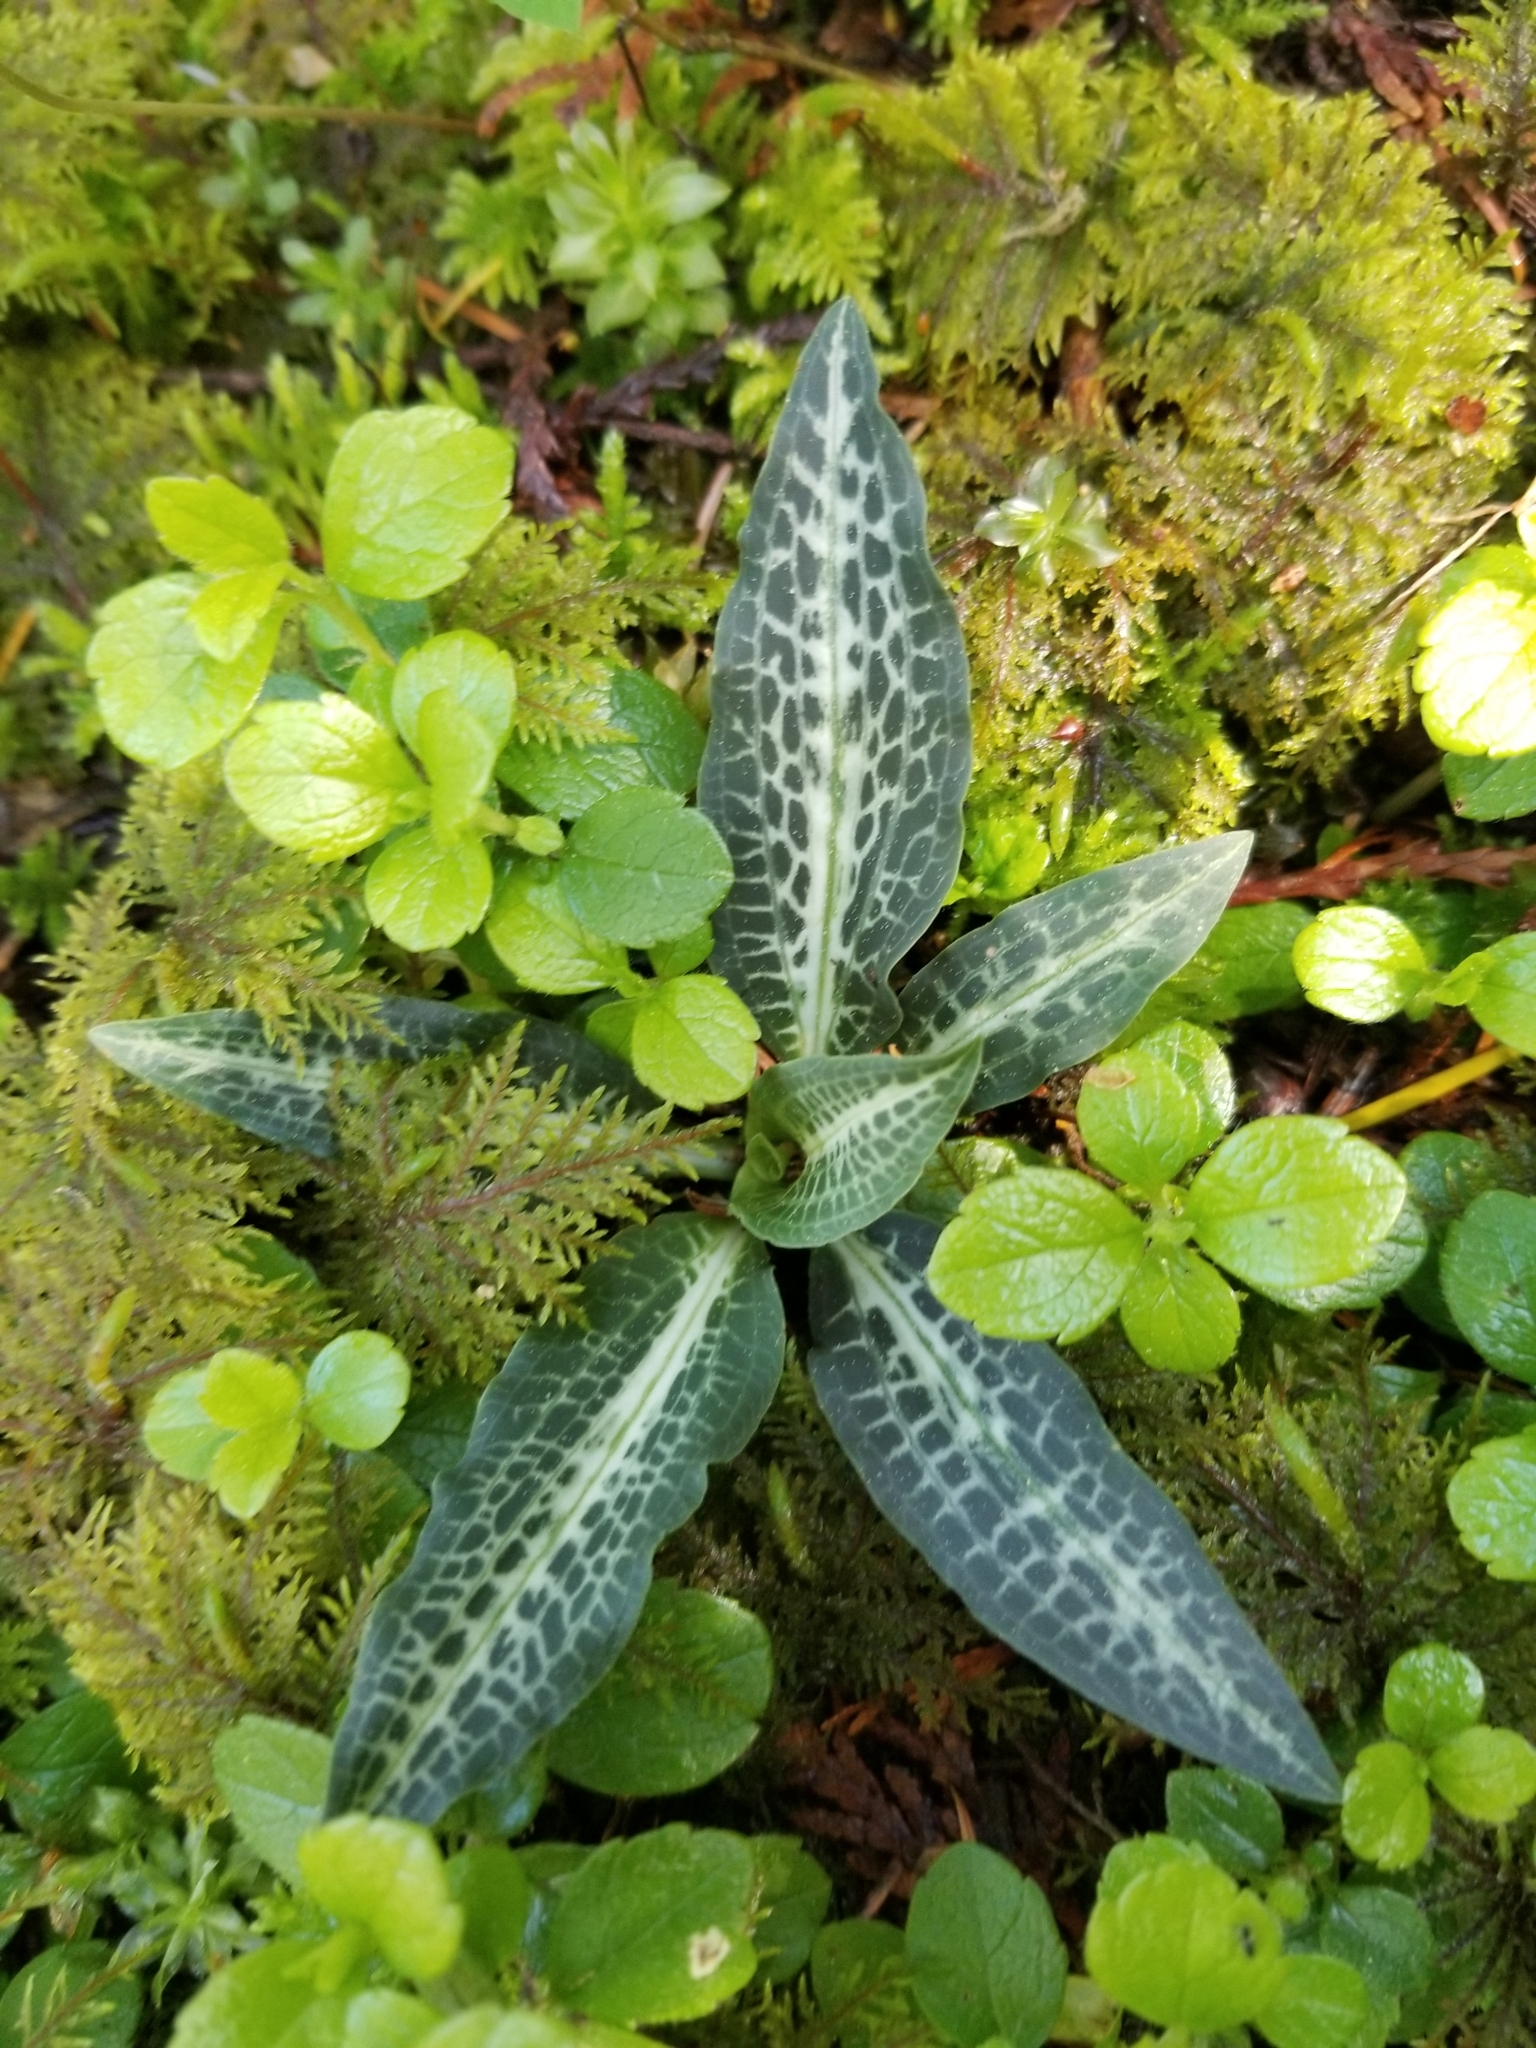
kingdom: Plantae
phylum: Tracheophyta
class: Liliopsida
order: Asparagales
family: Orchidaceae
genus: Goodyera
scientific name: Goodyera oblongifolia
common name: Giant rattlesnake-plantain
